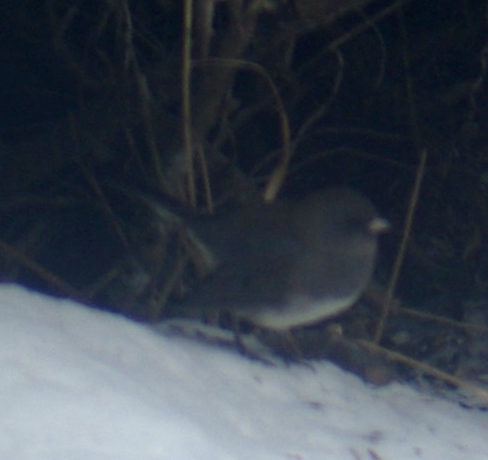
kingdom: Animalia
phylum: Chordata
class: Aves
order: Passeriformes
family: Passerellidae
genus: Junco
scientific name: Junco hyemalis
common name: Dark-eyed junco
